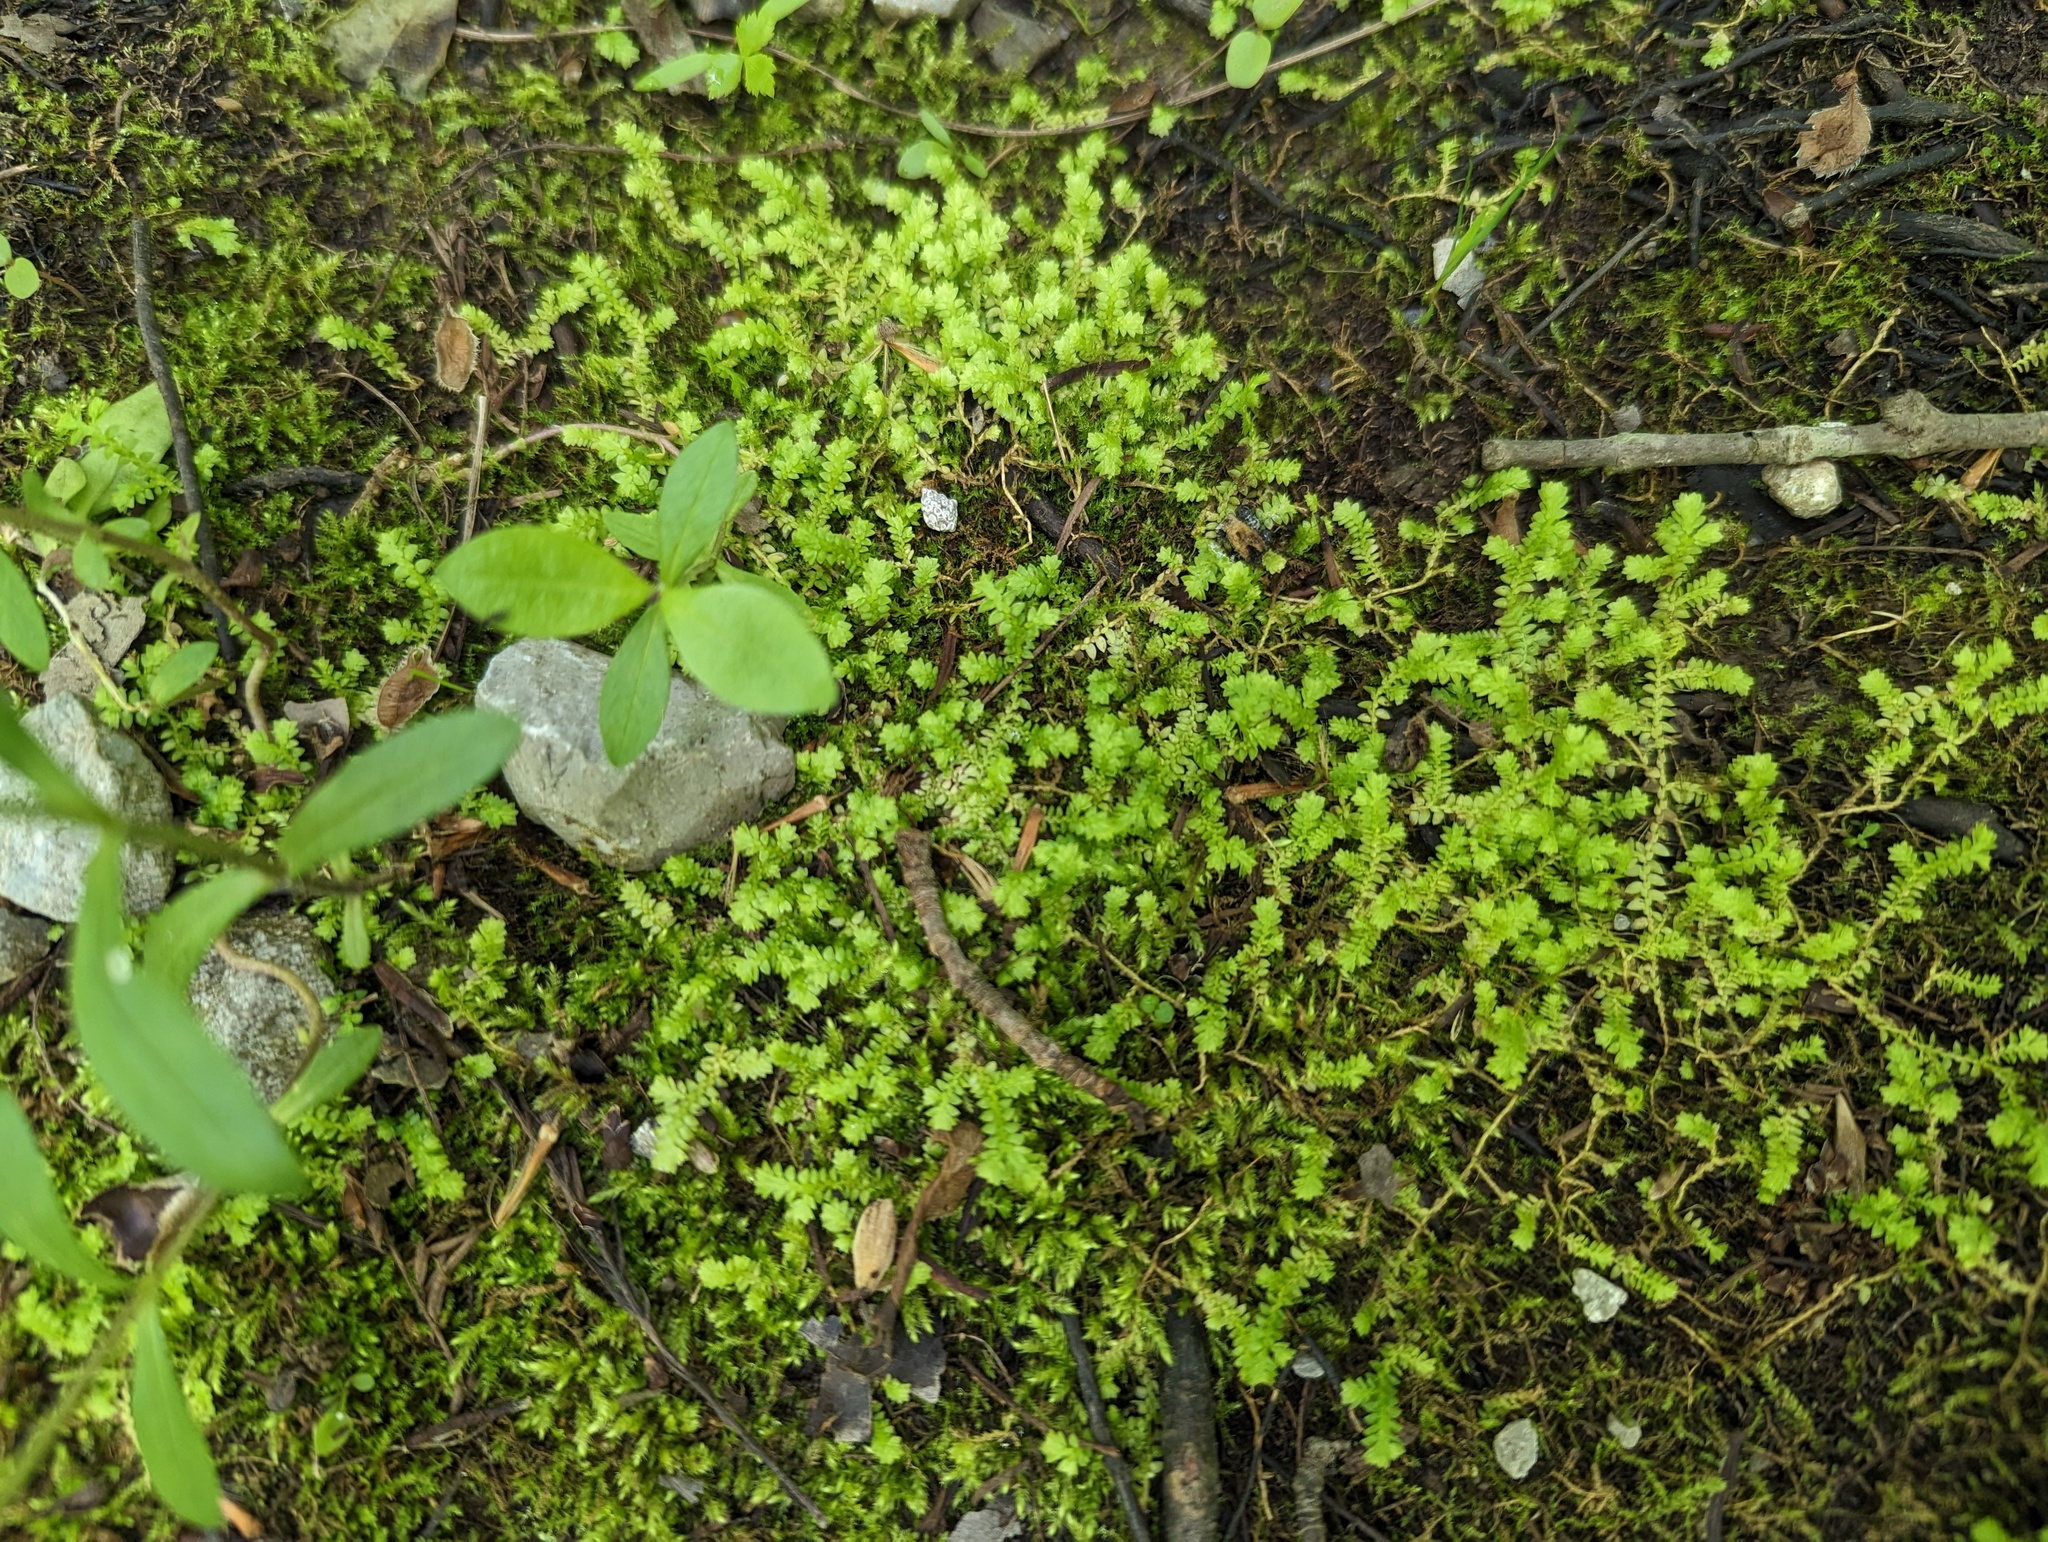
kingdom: Plantae
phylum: Tracheophyta
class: Lycopodiopsida
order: Selaginellales
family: Selaginellaceae
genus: Selaginella
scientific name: Selaginella apoda
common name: Creeping spikemoss
